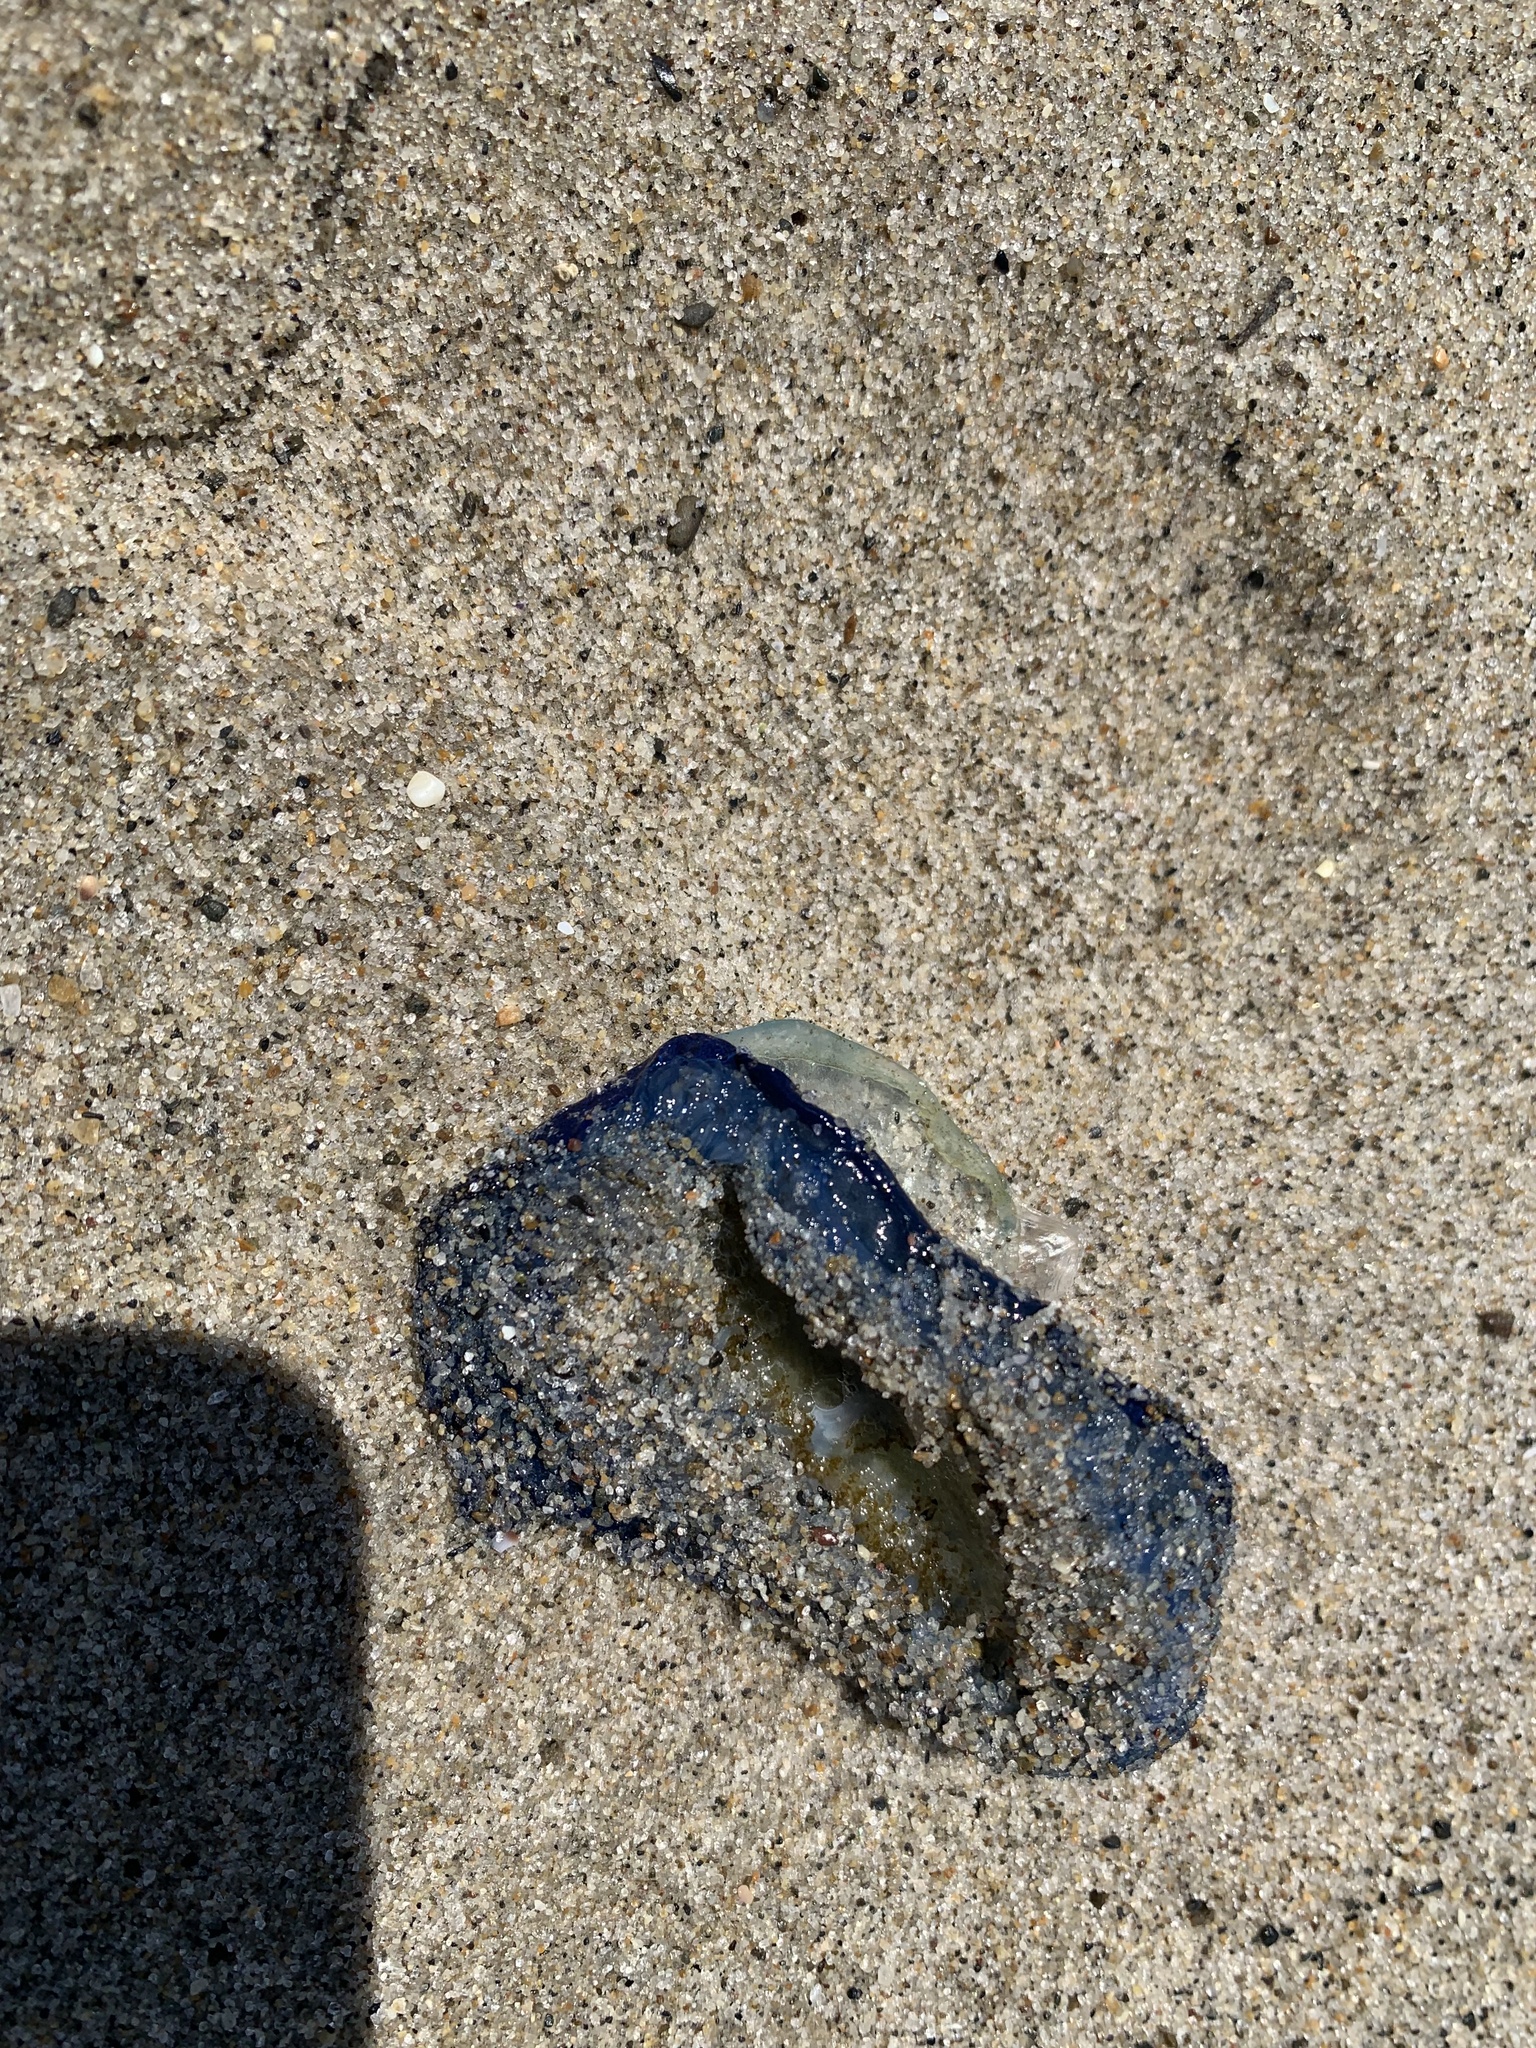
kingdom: Animalia
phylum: Cnidaria
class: Hydrozoa
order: Anthoathecata
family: Porpitidae
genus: Velella
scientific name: Velella velella
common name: By-the-wind-sailor
